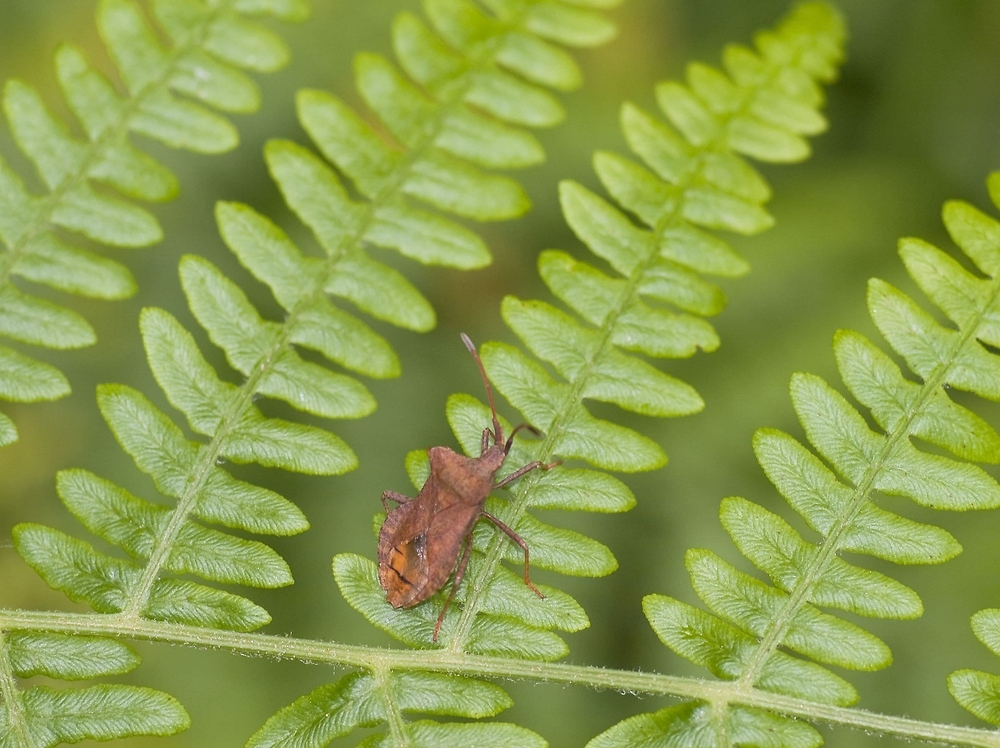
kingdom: Animalia
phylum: Arthropoda
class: Insecta
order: Hemiptera
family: Coreidae
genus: Coreus
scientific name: Coreus marginatus
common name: Dock bug
